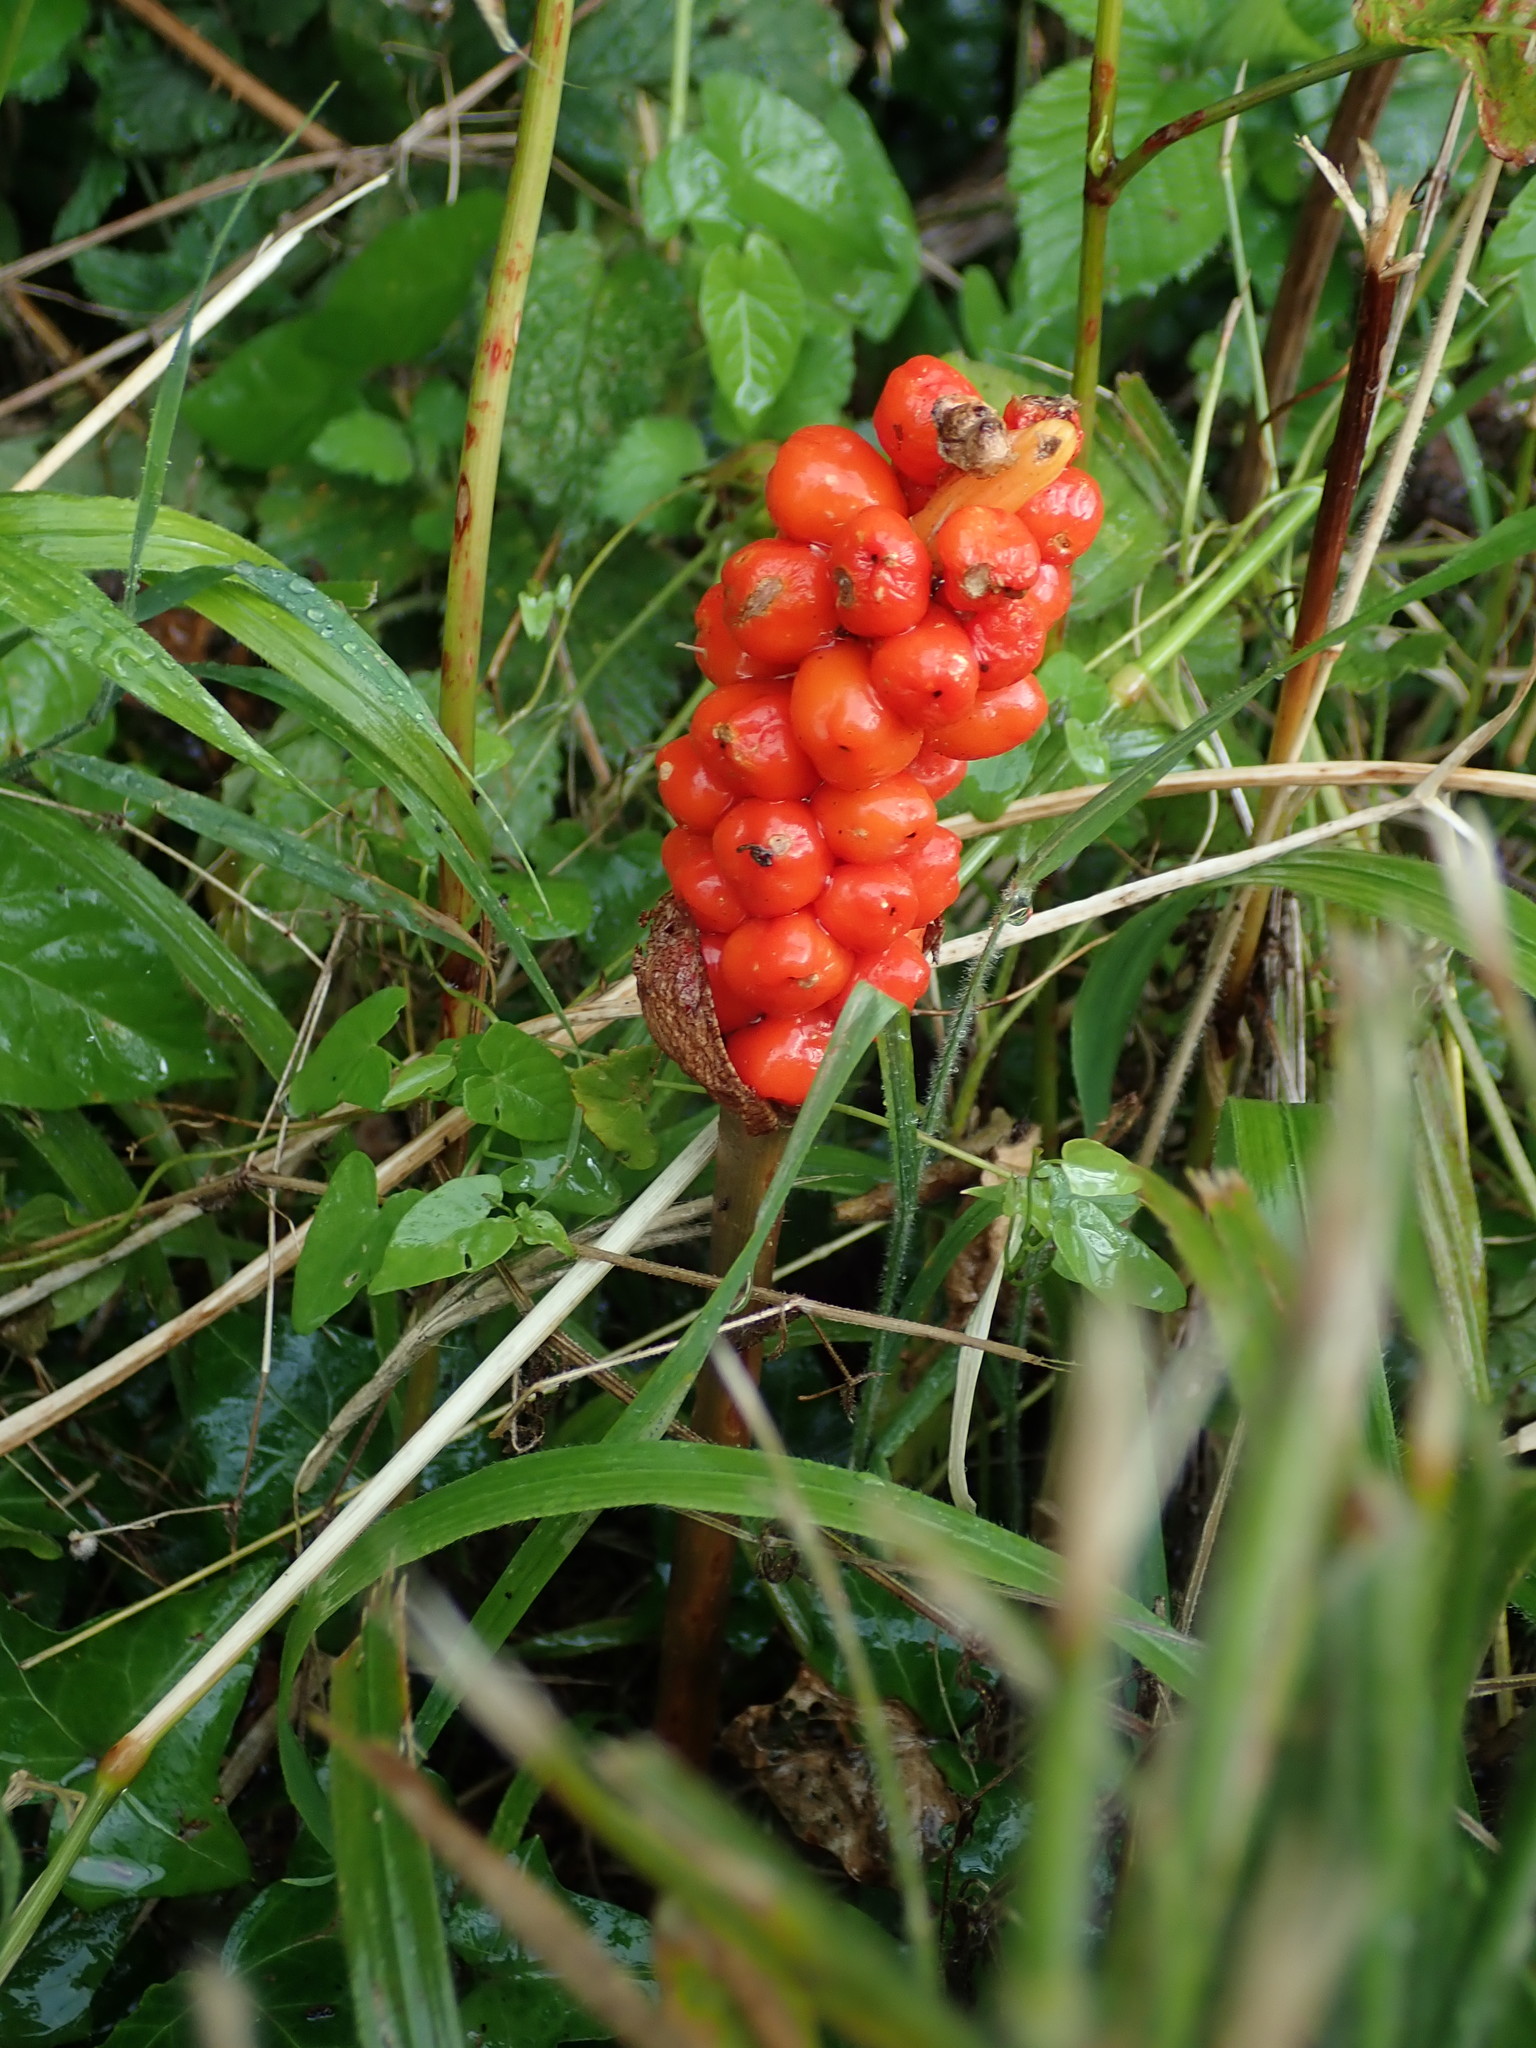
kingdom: Plantae
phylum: Tracheophyta
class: Liliopsida
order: Alismatales
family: Araceae
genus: Arum
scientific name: Arum maculatum
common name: Lords-and-ladies
